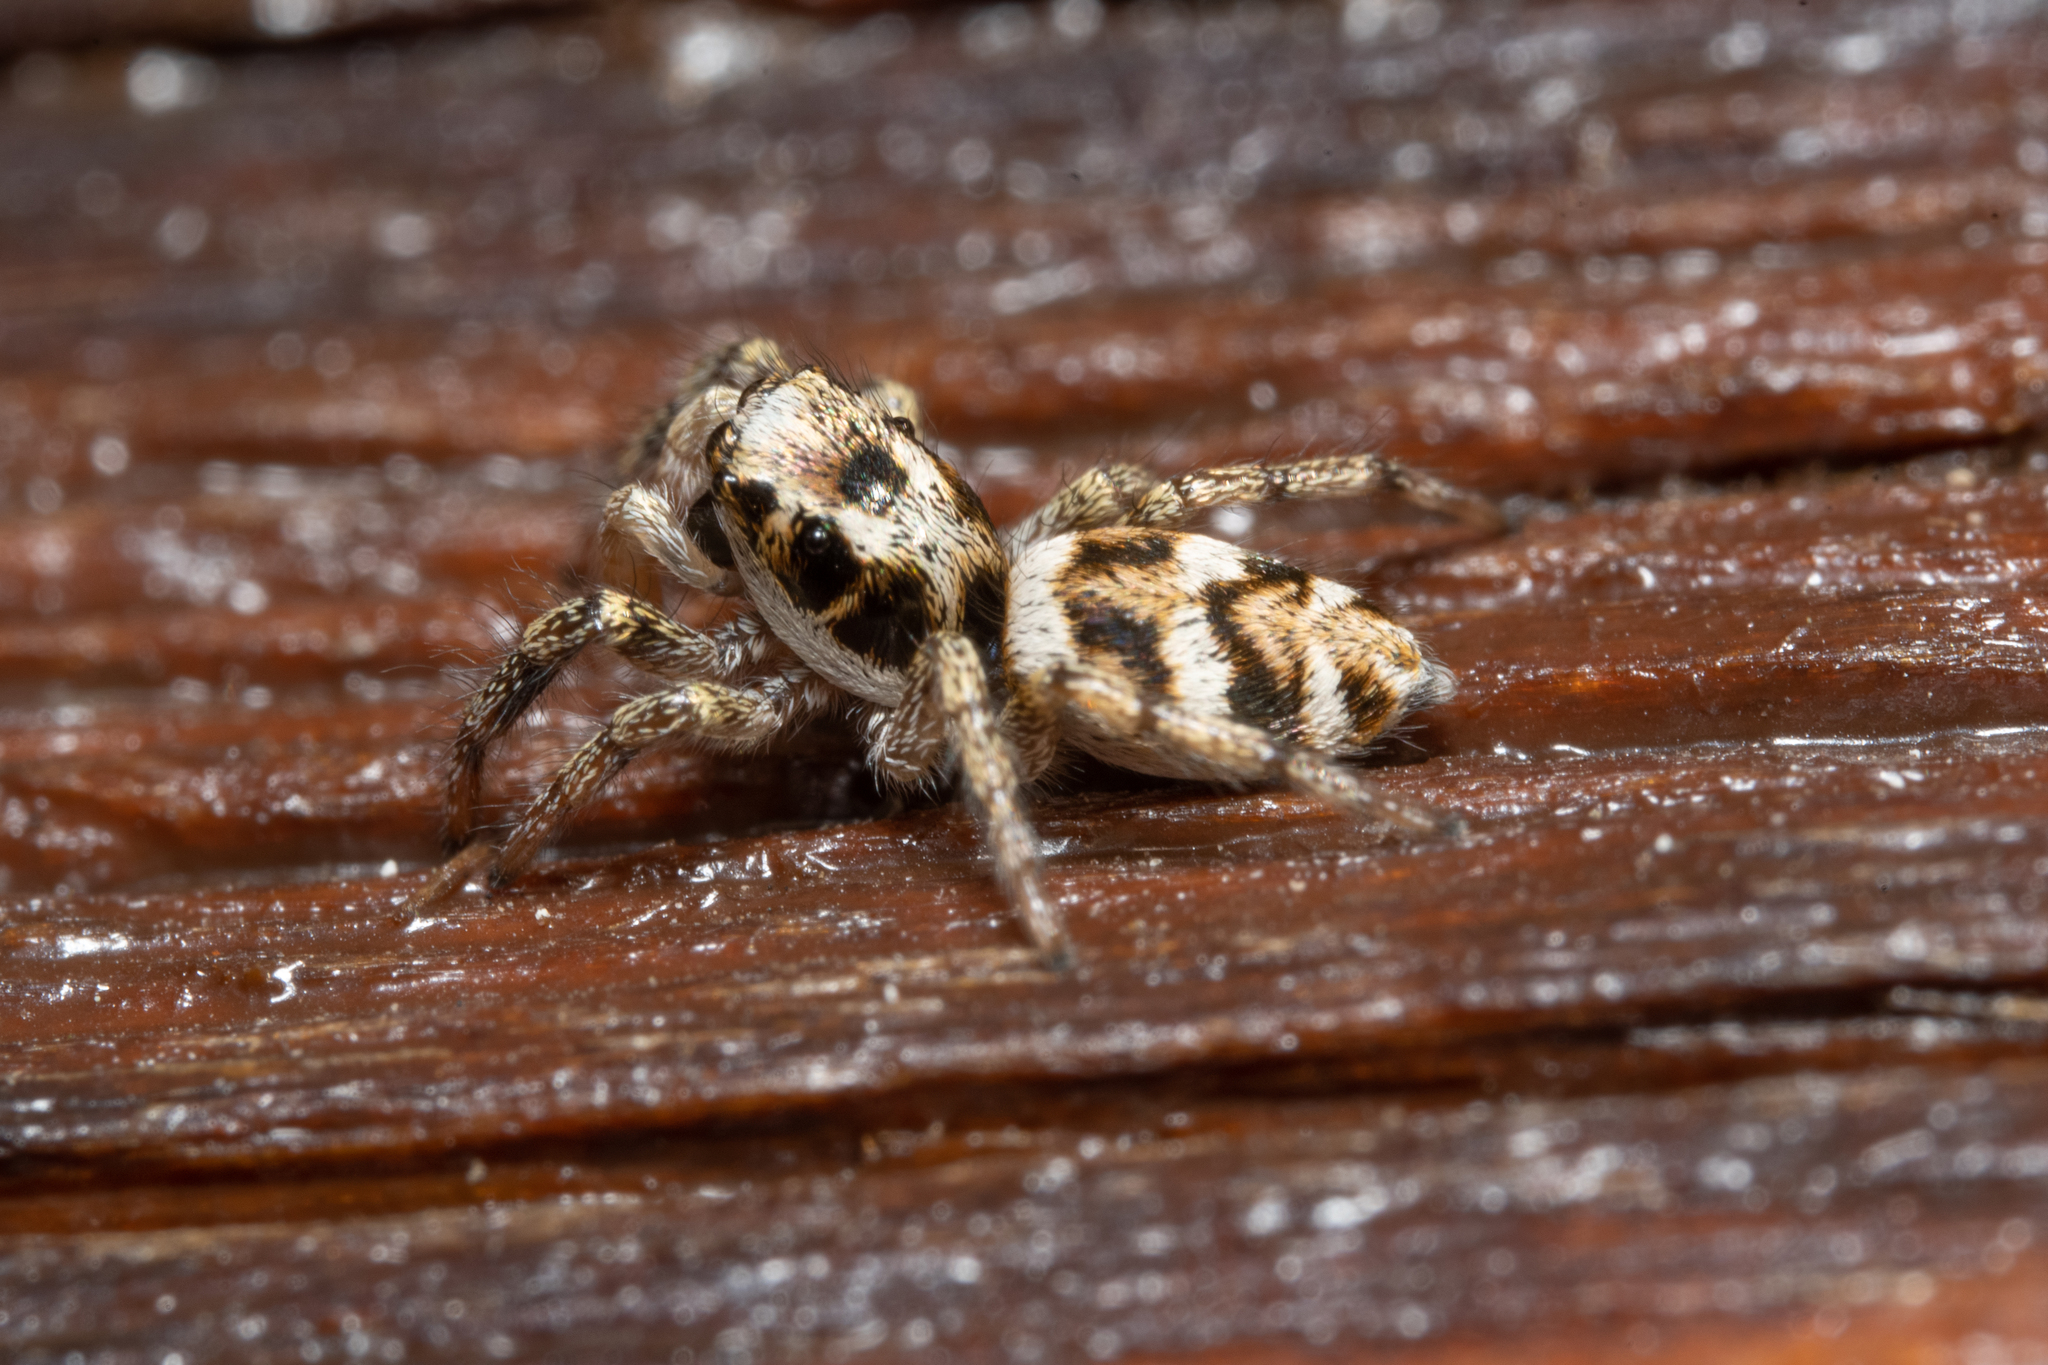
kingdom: Animalia
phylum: Arthropoda
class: Arachnida
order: Araneae
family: Salticidae
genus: Salticus
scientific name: Salticus scenicus
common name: Zebra jumper
